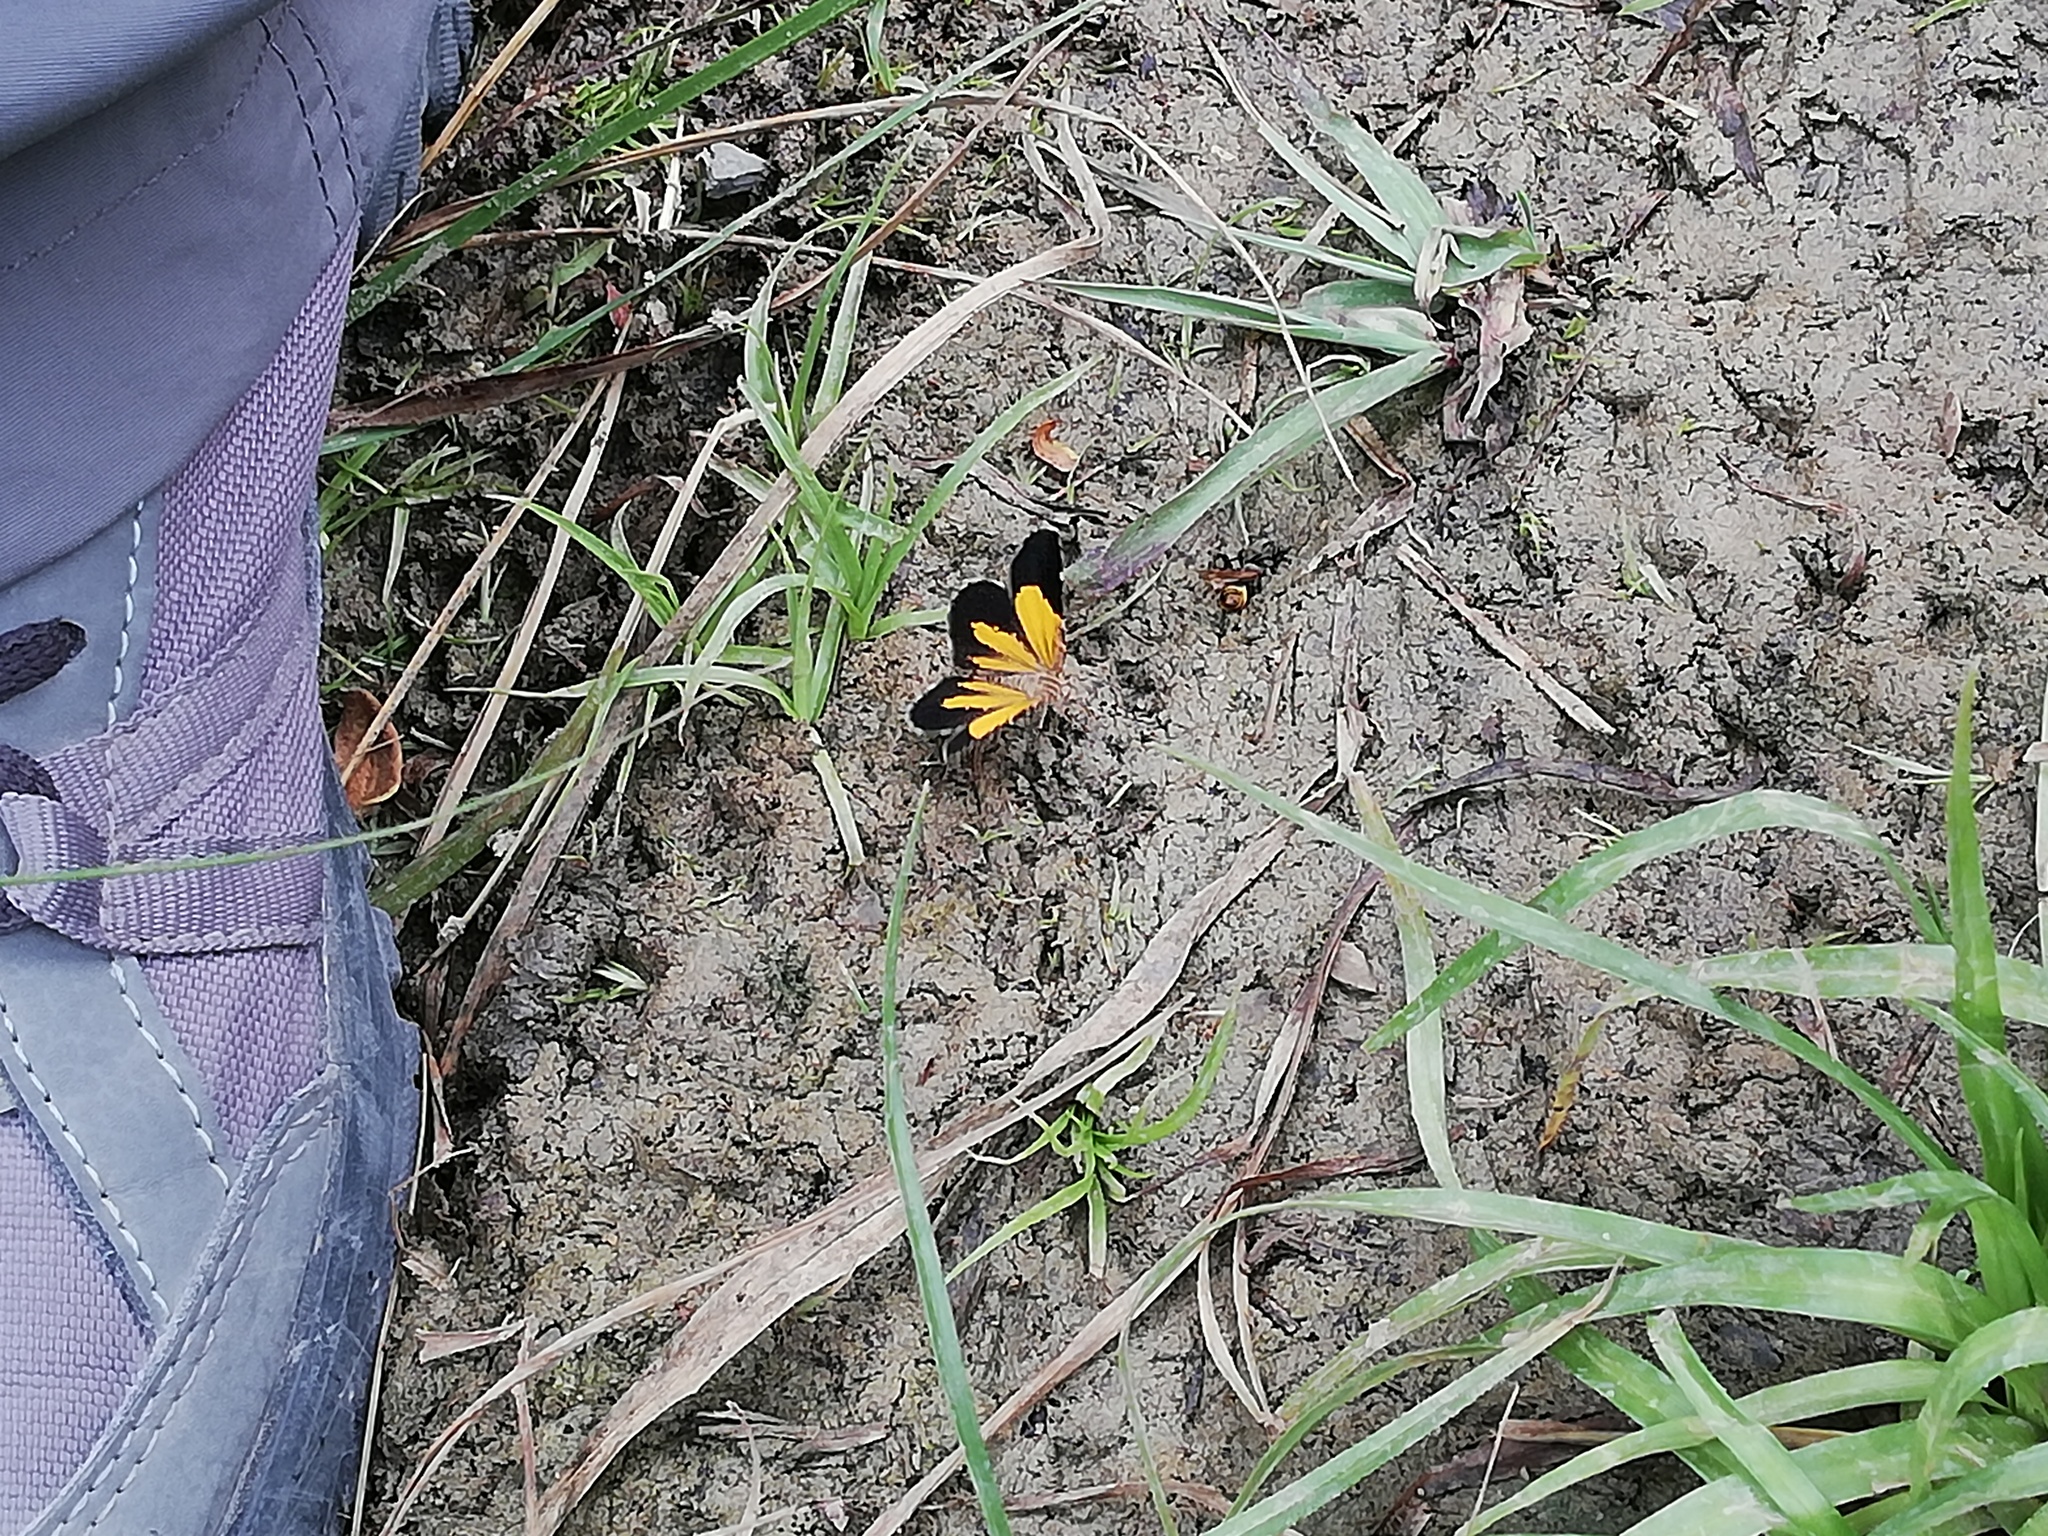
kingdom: Animalia
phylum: Arthropoda
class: Insecta
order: Lepidoptera
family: Geometridae
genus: Heterusia
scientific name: Heterusia atalantata
